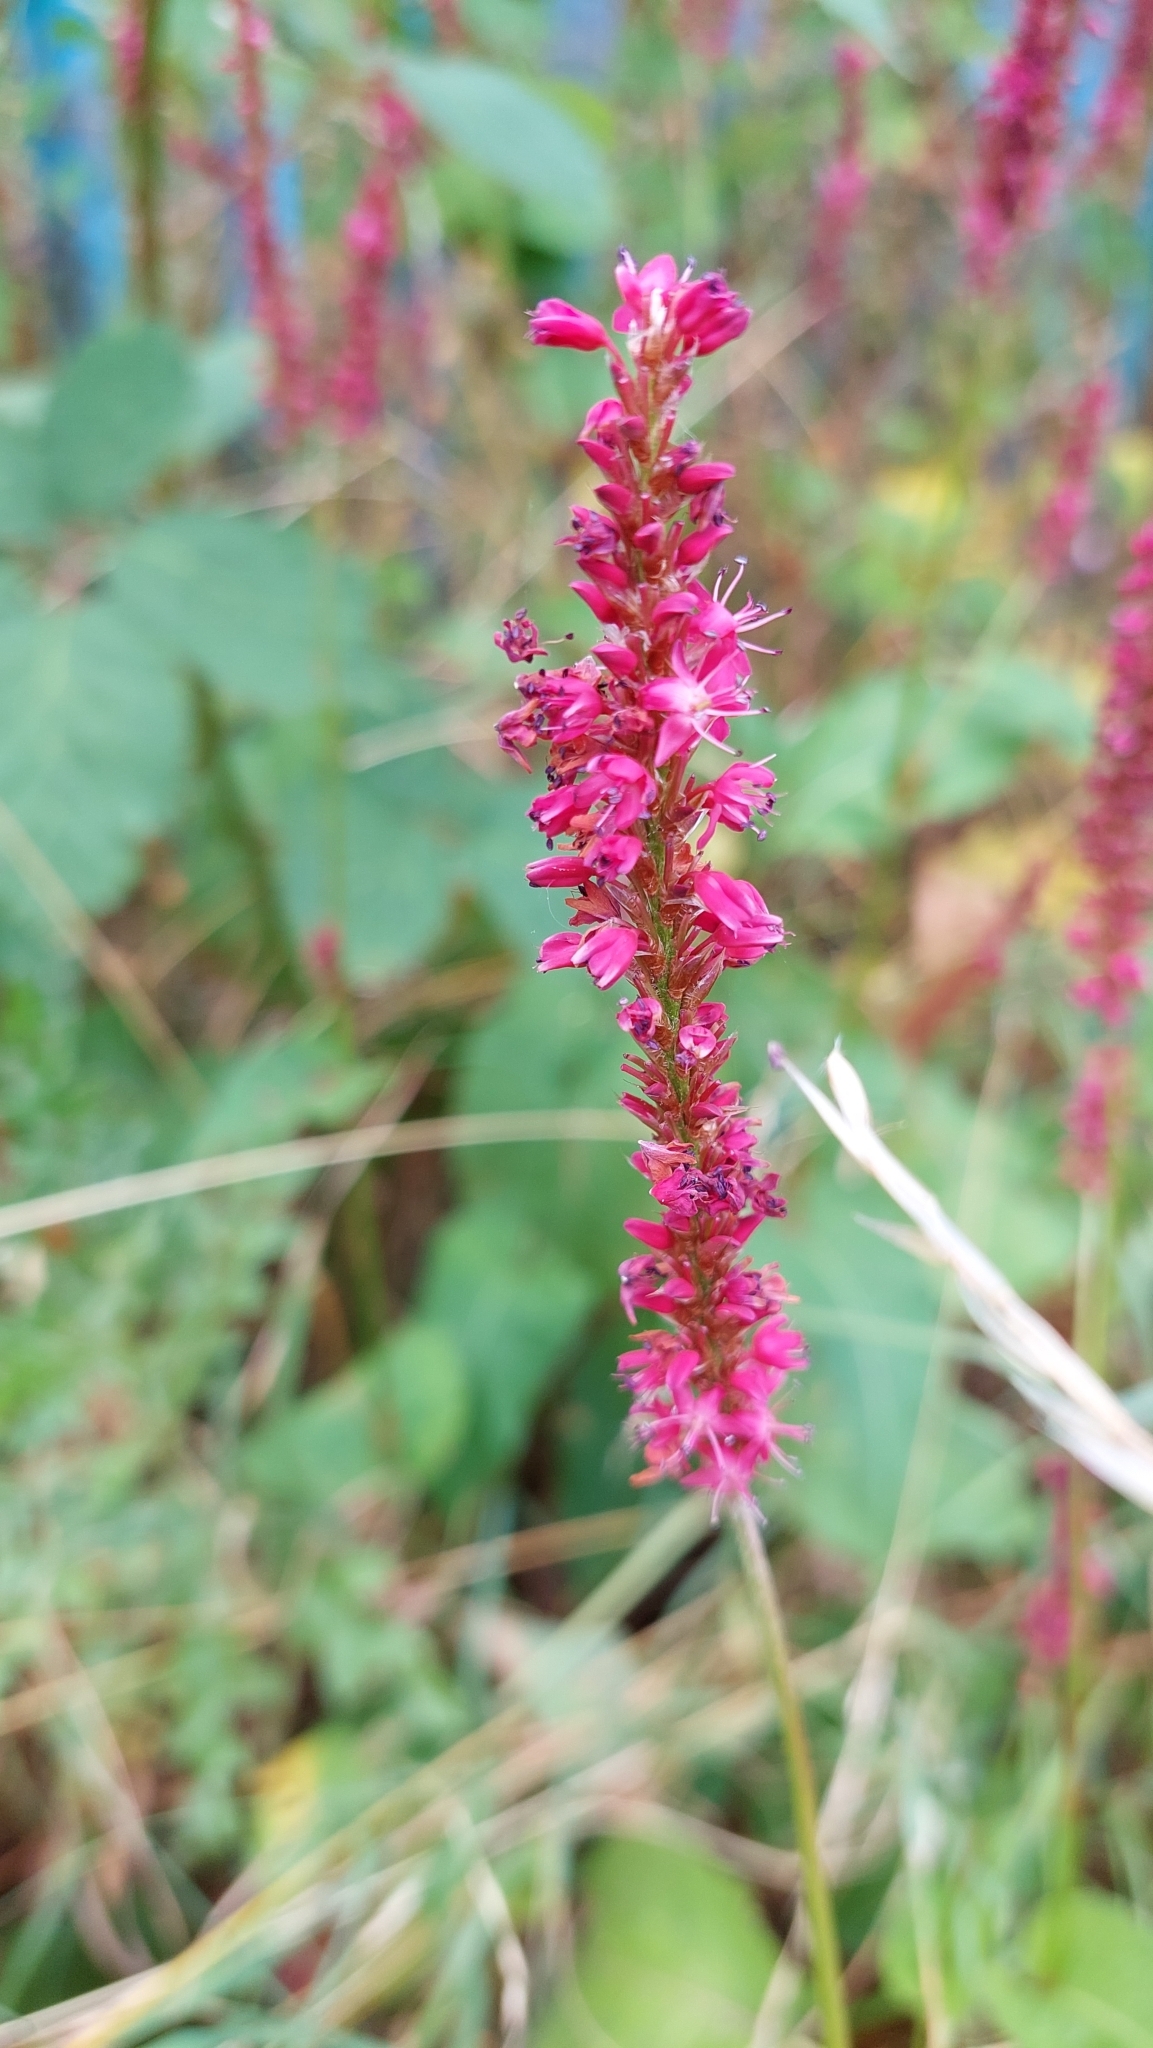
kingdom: Plantae
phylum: Tracheophyta
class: Magnoliopsida
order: Caryophyllales
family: Polygonaceae
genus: Bistorta
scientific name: Bistorta amplexicaulis
